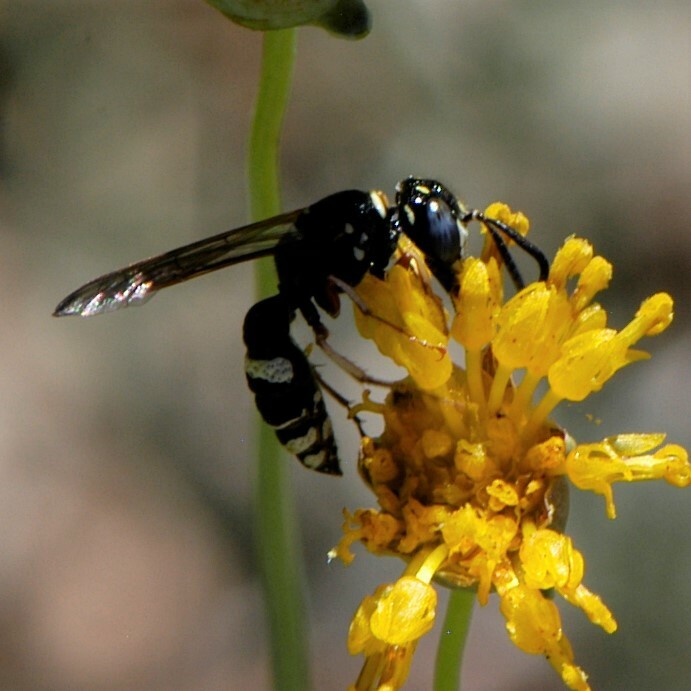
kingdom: Animalia
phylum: Arthropoda
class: Insecta
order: Hymenoptera
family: Crabronidae
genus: Philanthus
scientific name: Philanthus gibbosus
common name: Humped beewolf
